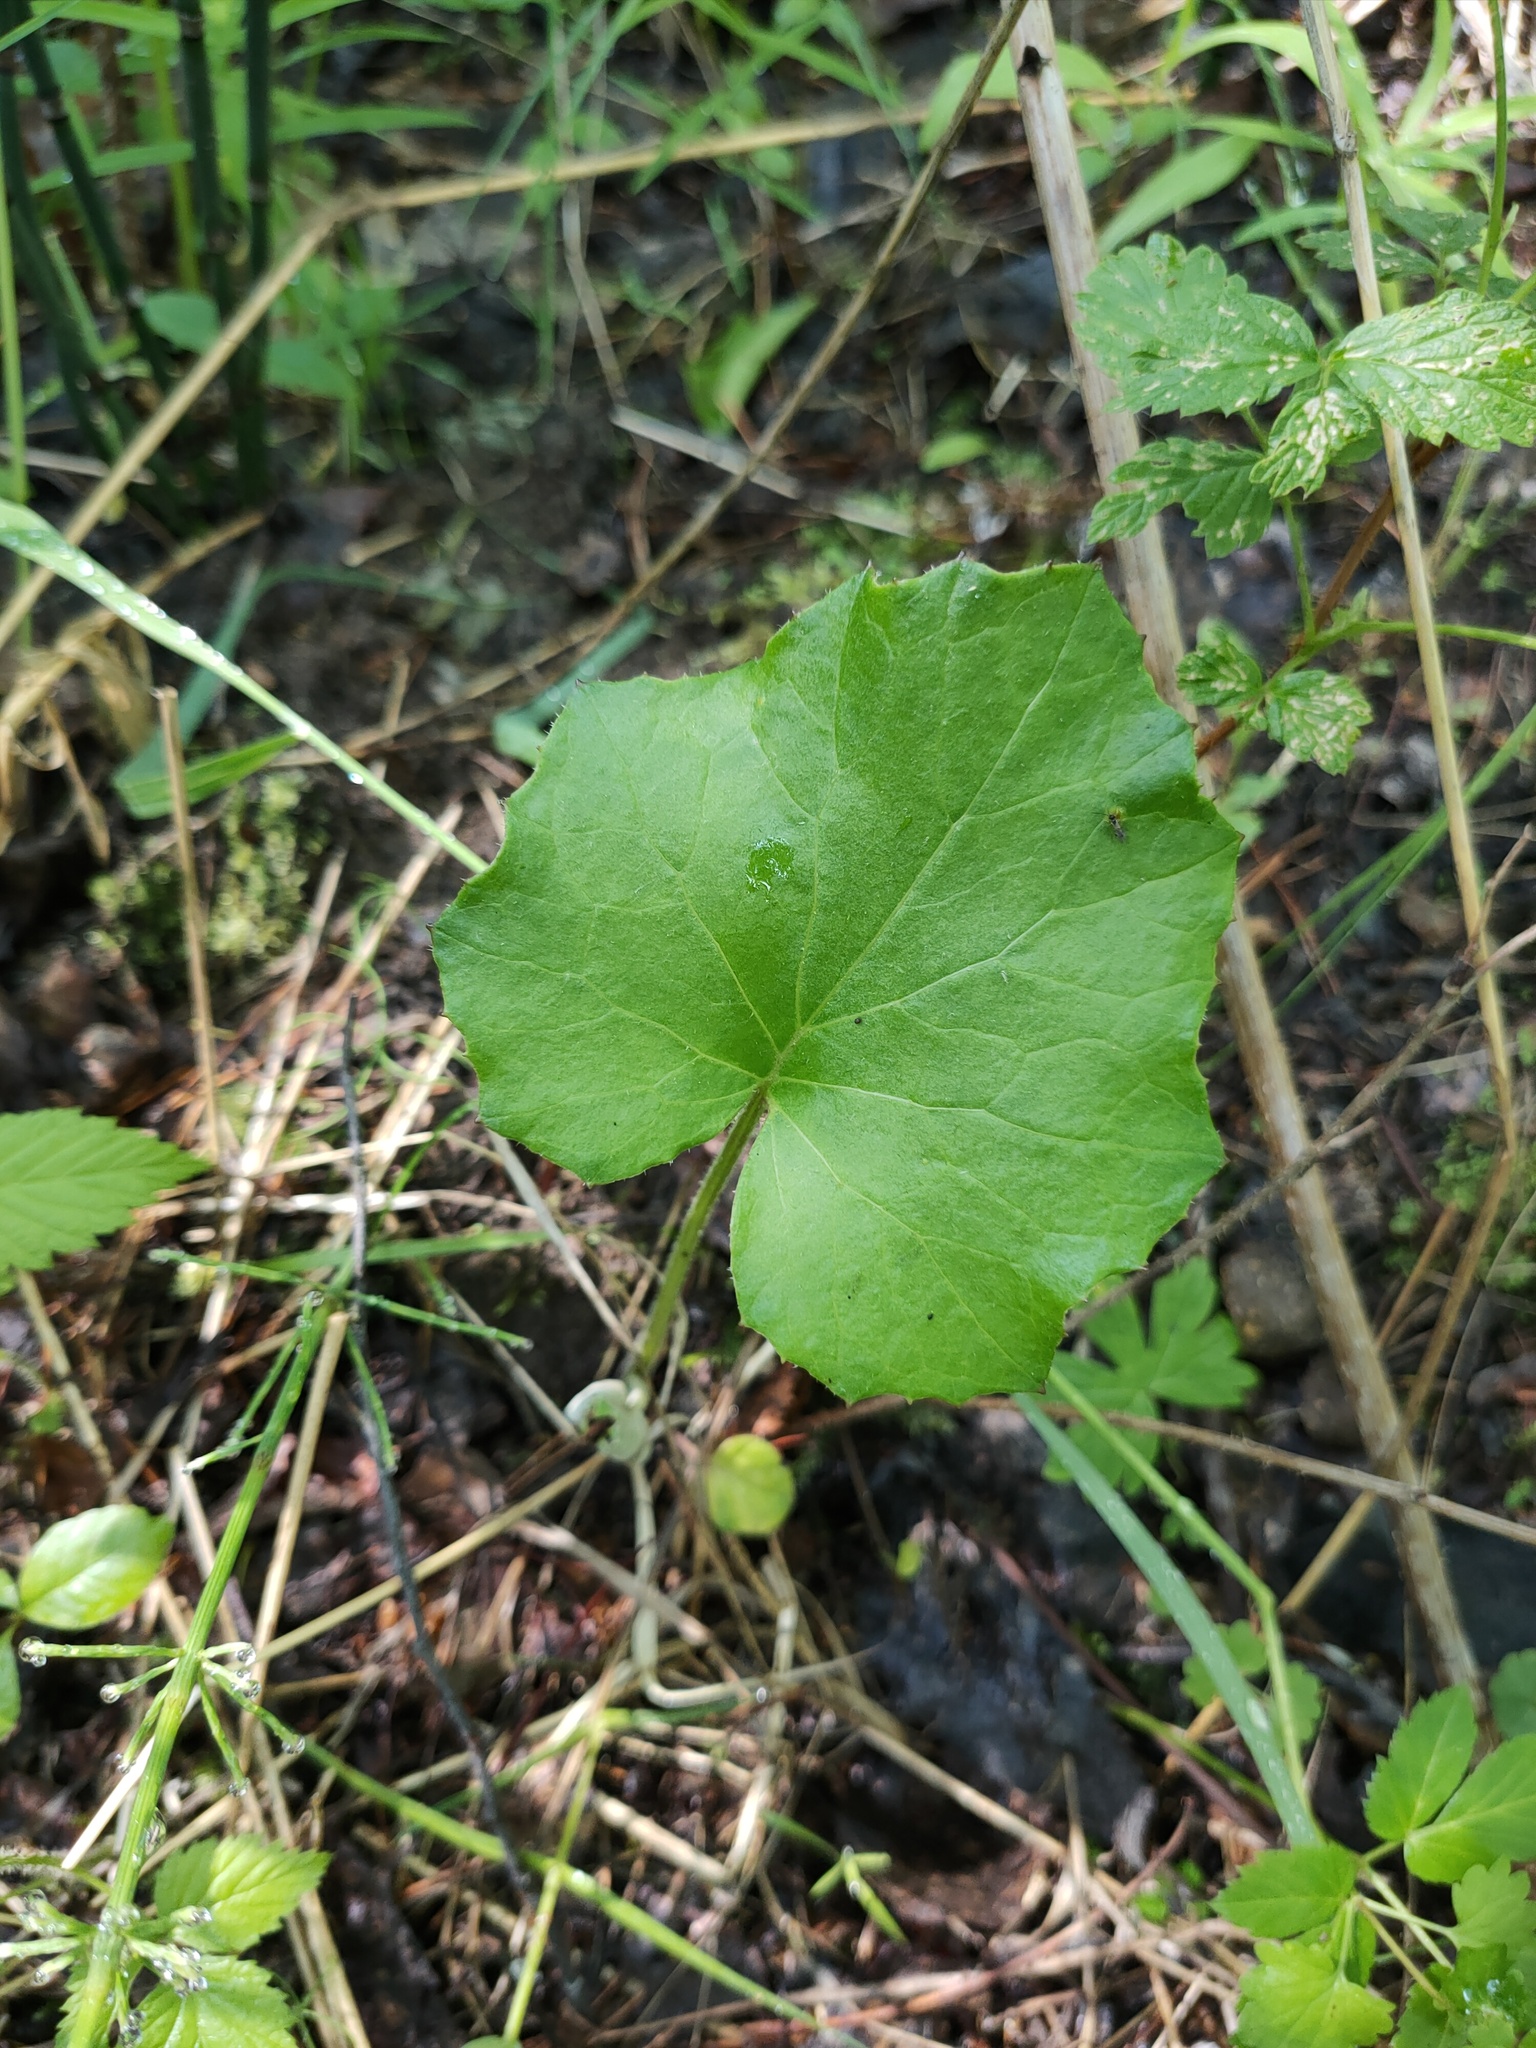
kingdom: Plantae
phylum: Tracheophyta
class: Magnoliopsida
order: Asterales
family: Asteraceae
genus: Tussilago
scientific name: Tussilago farfara
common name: Coltsfoot
